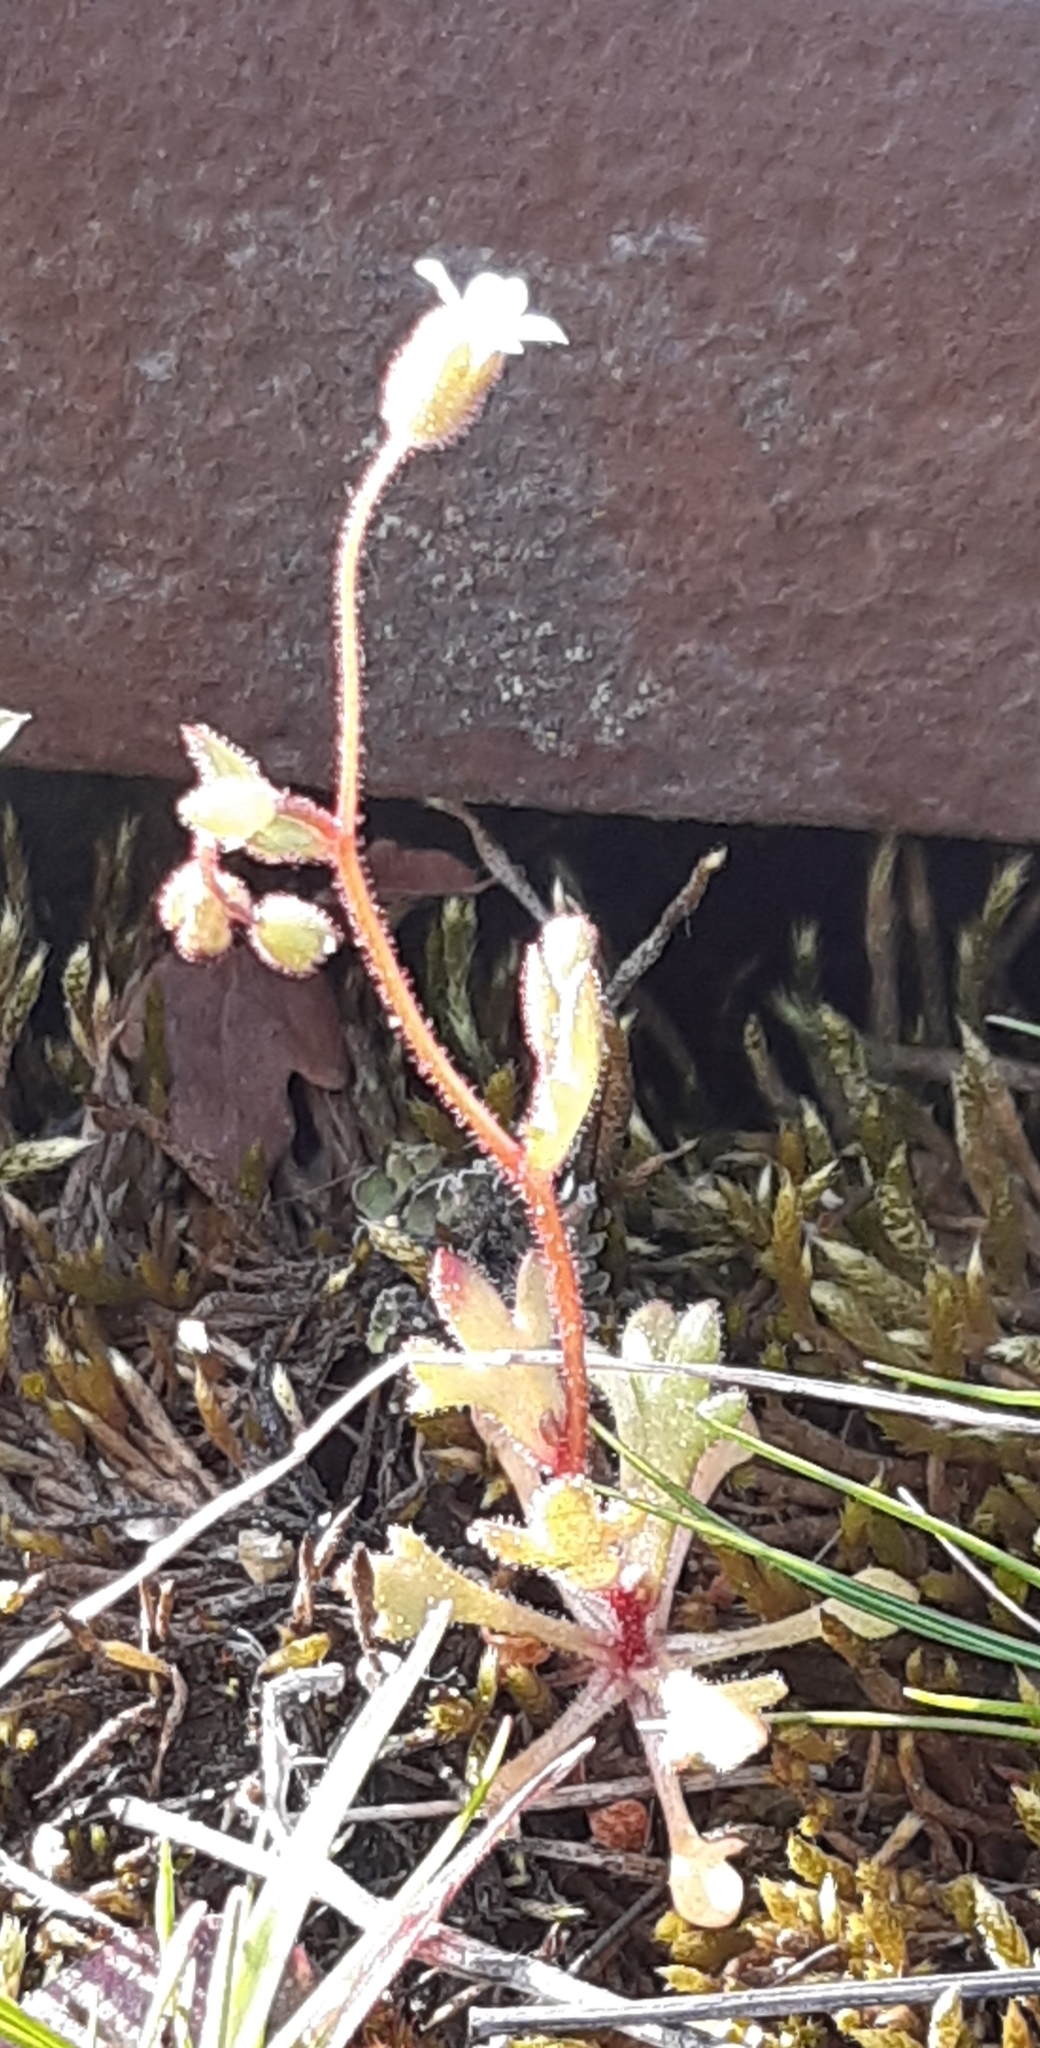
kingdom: Plantae
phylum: Tracheophyta
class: Magnoliopsida
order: Saxifragales
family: Saxifragaceae
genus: Saxifraga
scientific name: Saxifraga tridactylites
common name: Rue-leaved saxifrage
